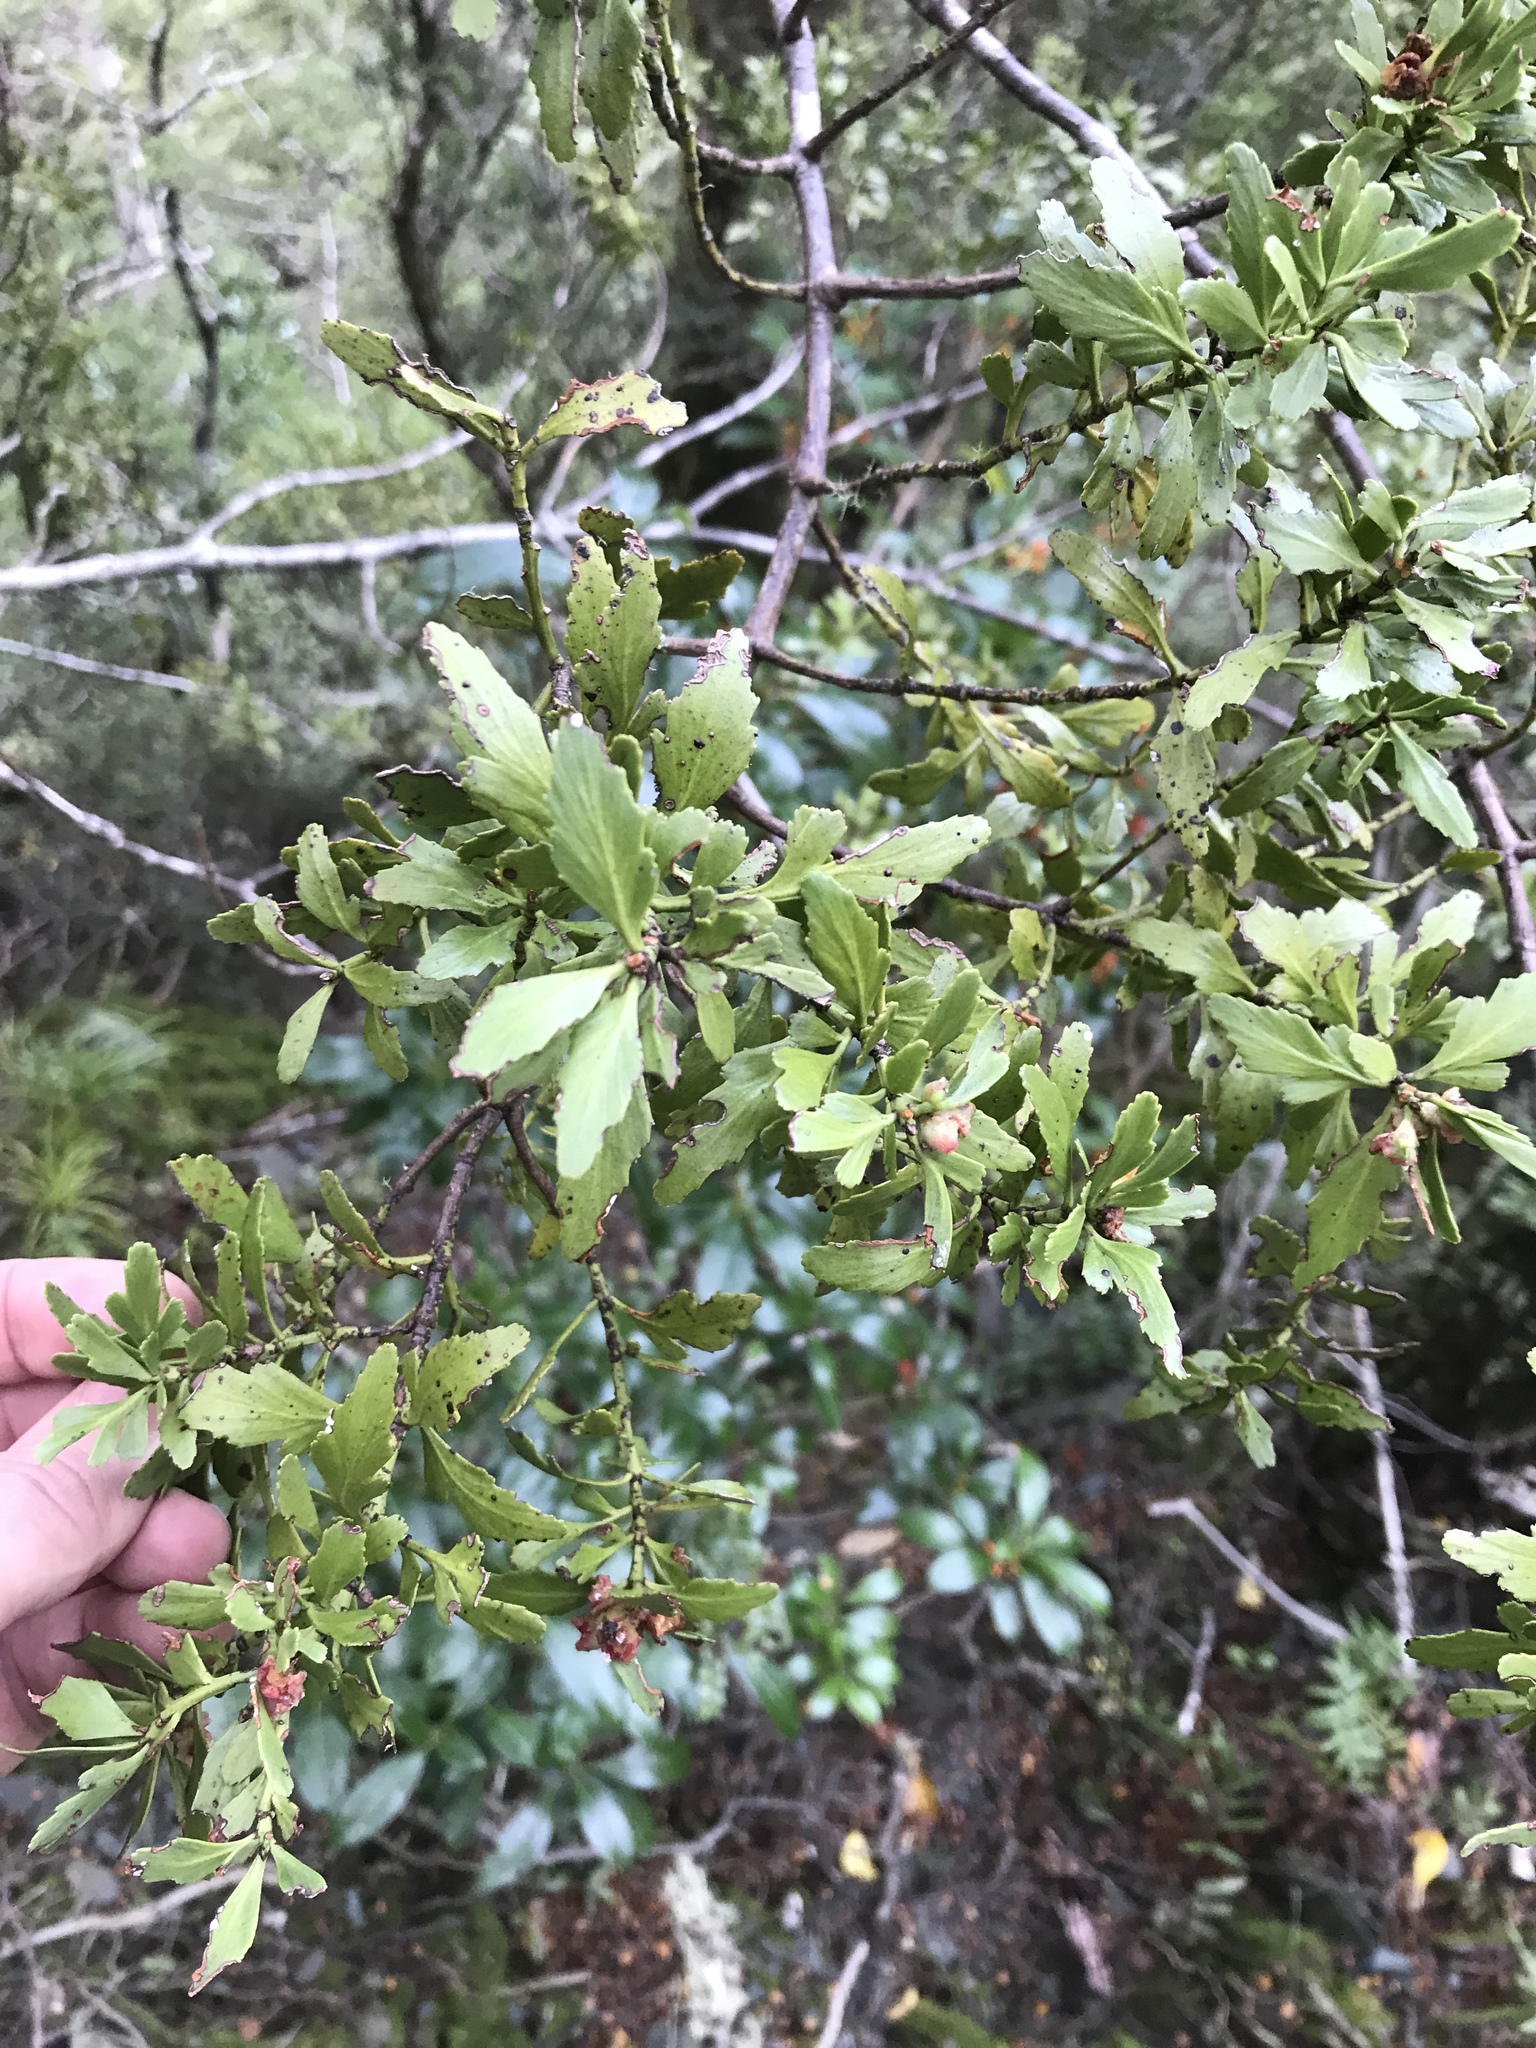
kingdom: Plantae
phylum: Tracheophyta
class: Pinopsida
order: Pinales
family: Phyllocladaceae
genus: Phyllocladus
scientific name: Phyllocladus trichomanoides
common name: Celery pine
